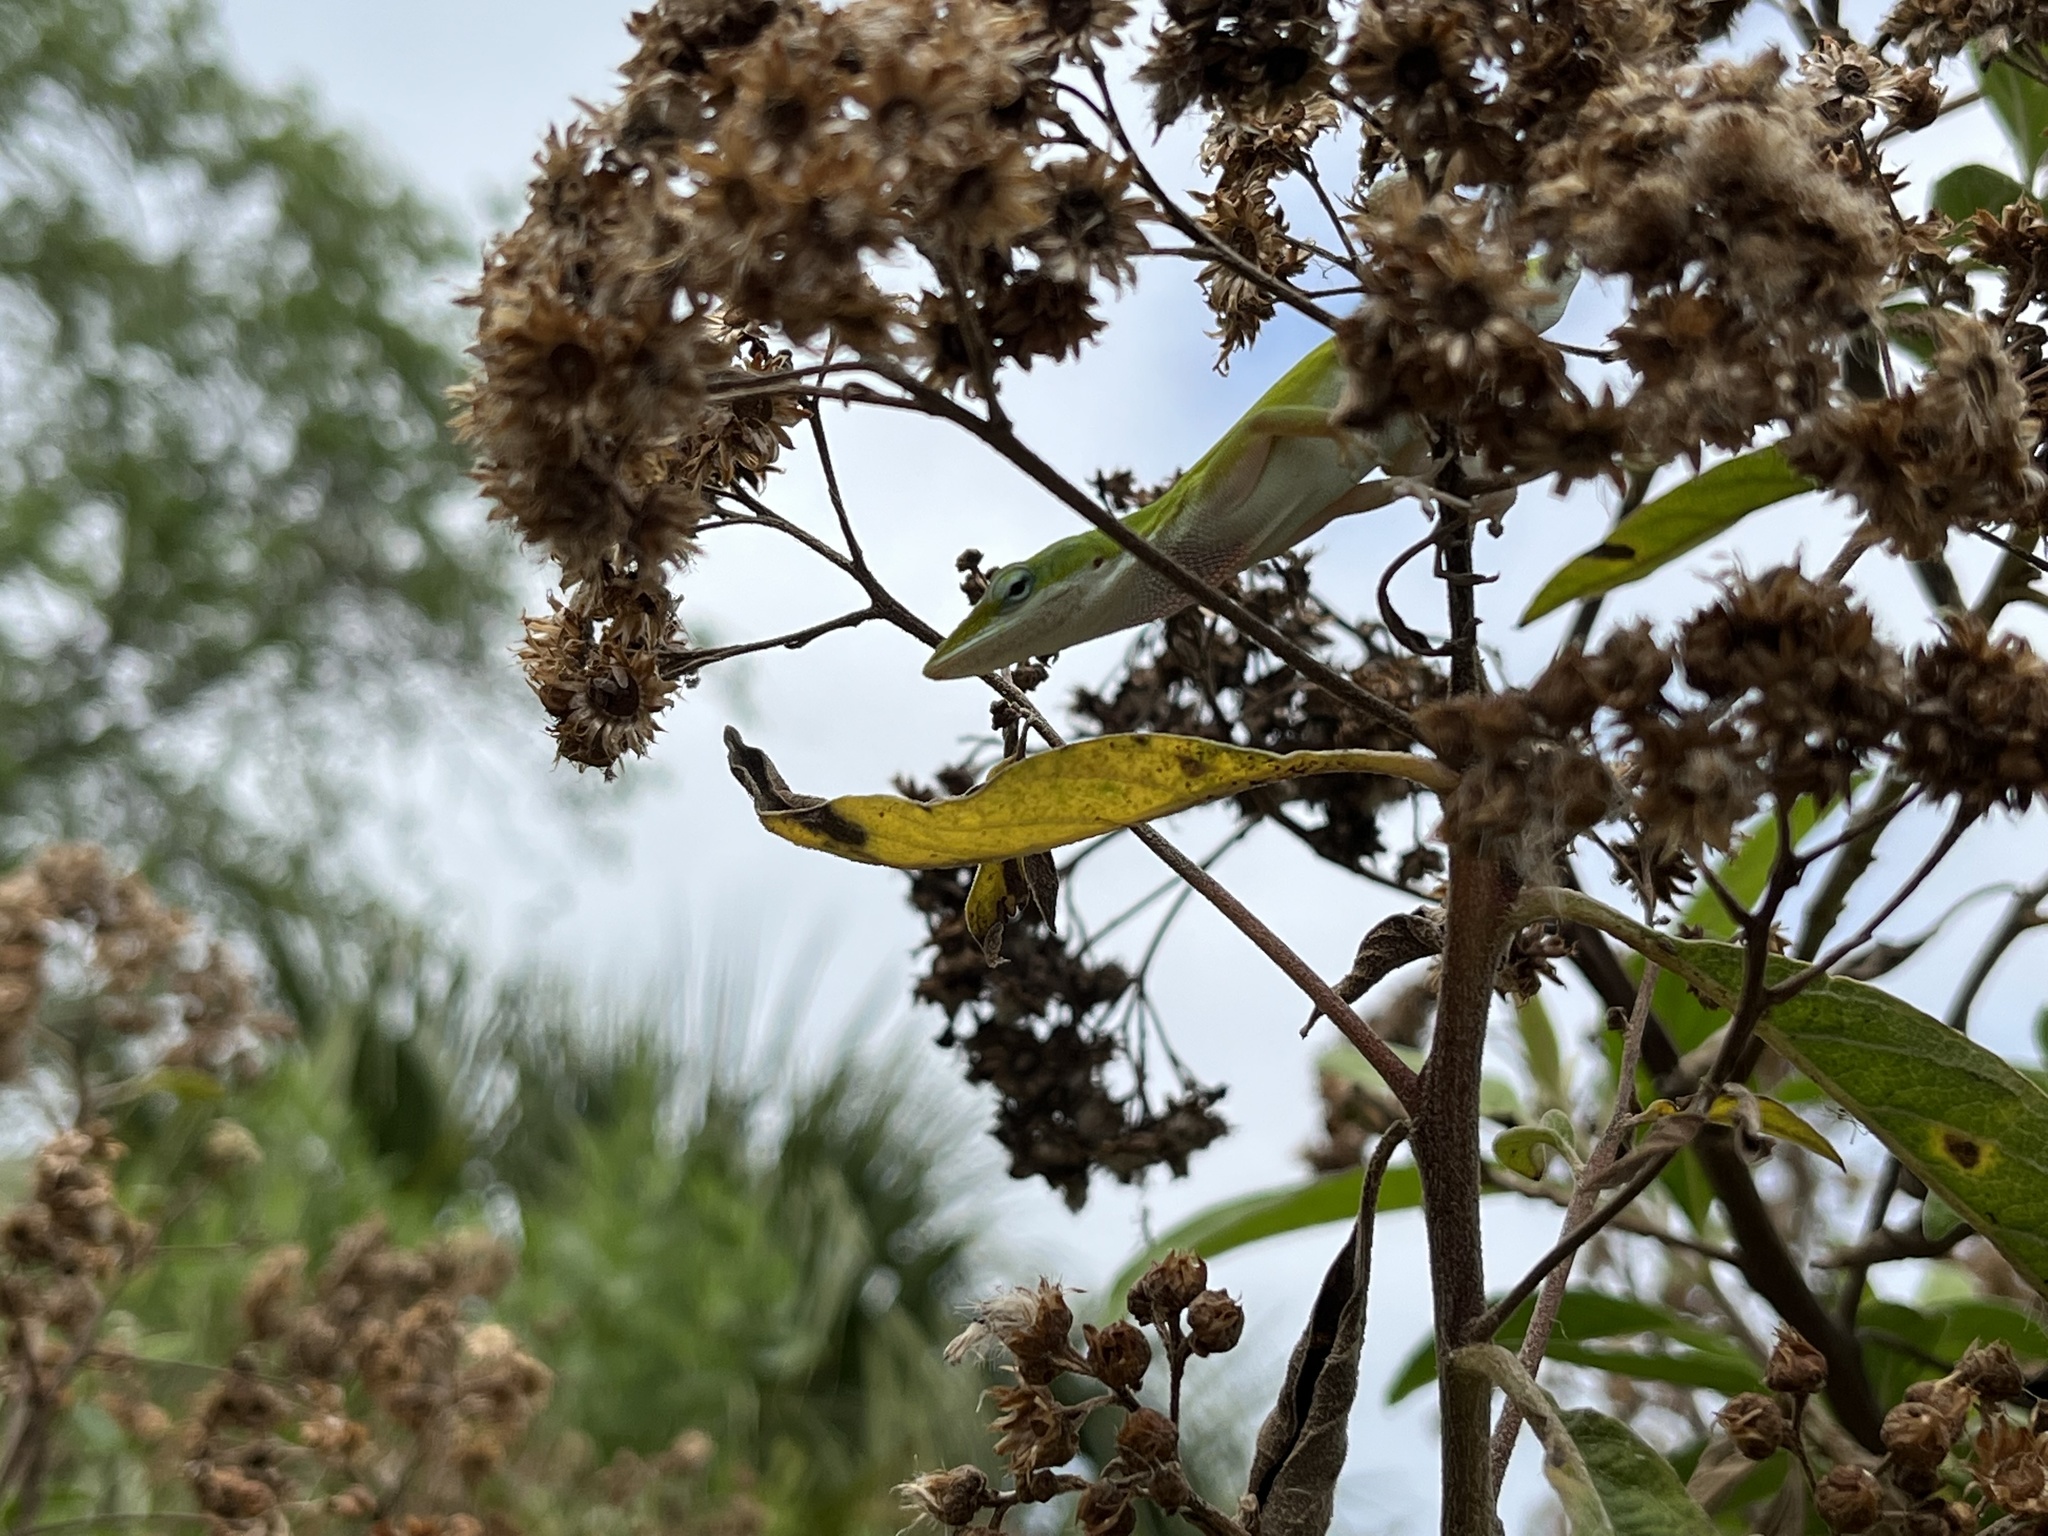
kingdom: Animalia
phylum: Chordata
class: Squamata
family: Dactyloidae
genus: Anolis
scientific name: Anolis carolinensis
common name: Green anole
